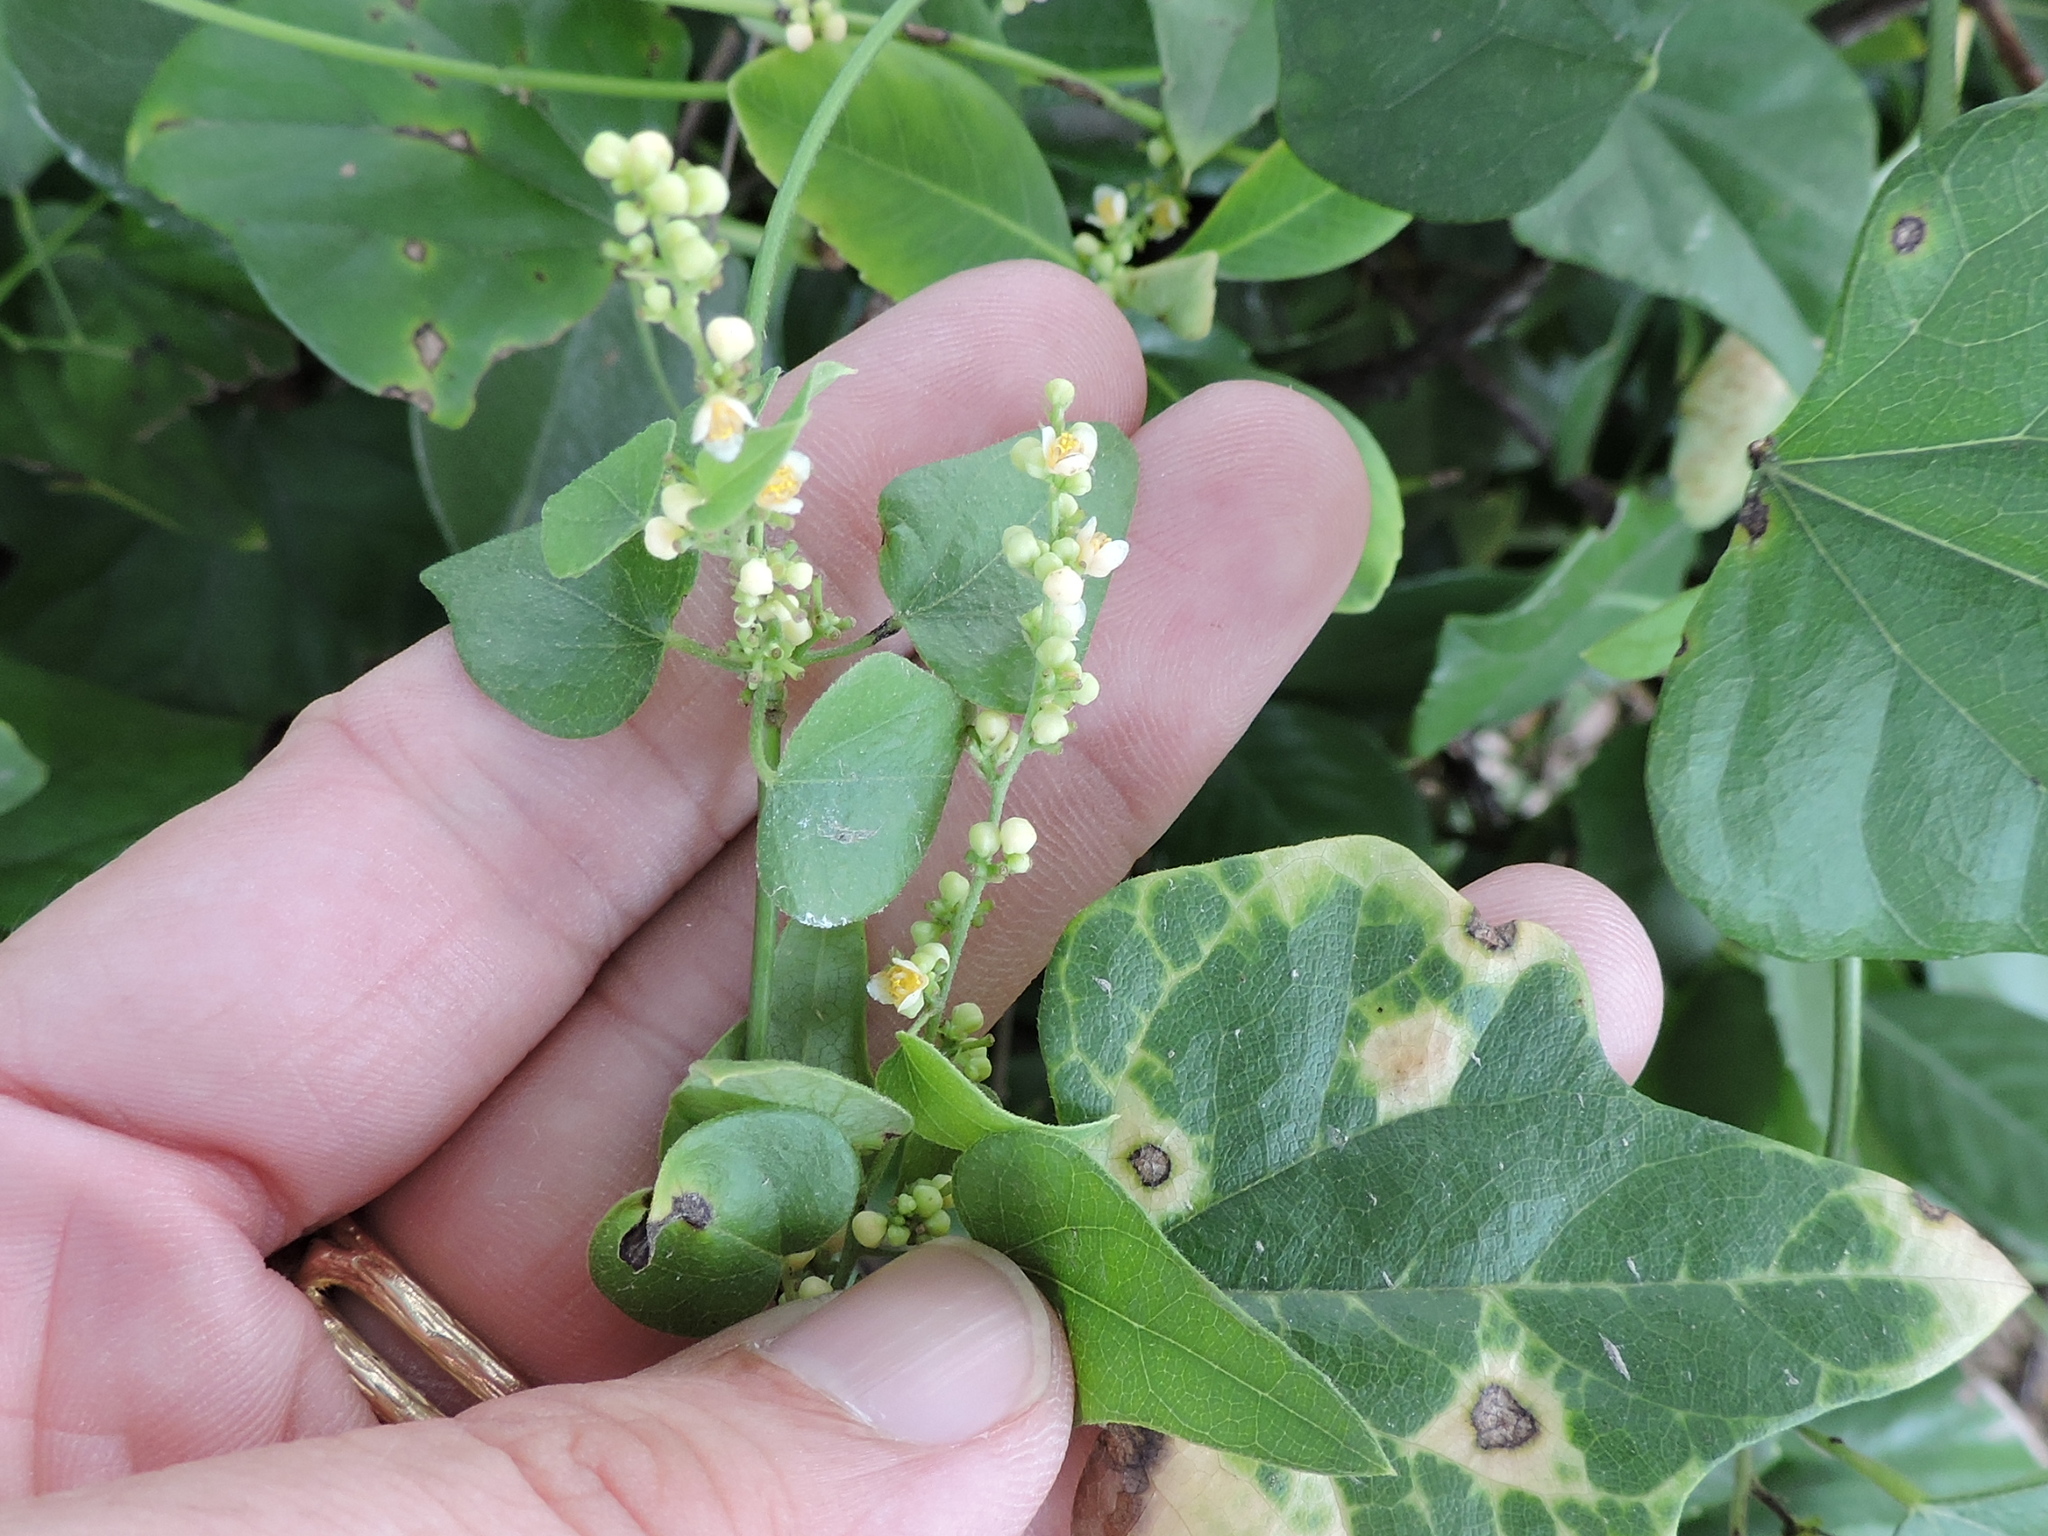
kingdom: Plantae
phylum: Tracheophyta
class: Magnoliopsida
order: Ranunculales
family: Menispermaceae
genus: Cocculus
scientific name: Cocculus carolinus
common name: Carolina moonseed
